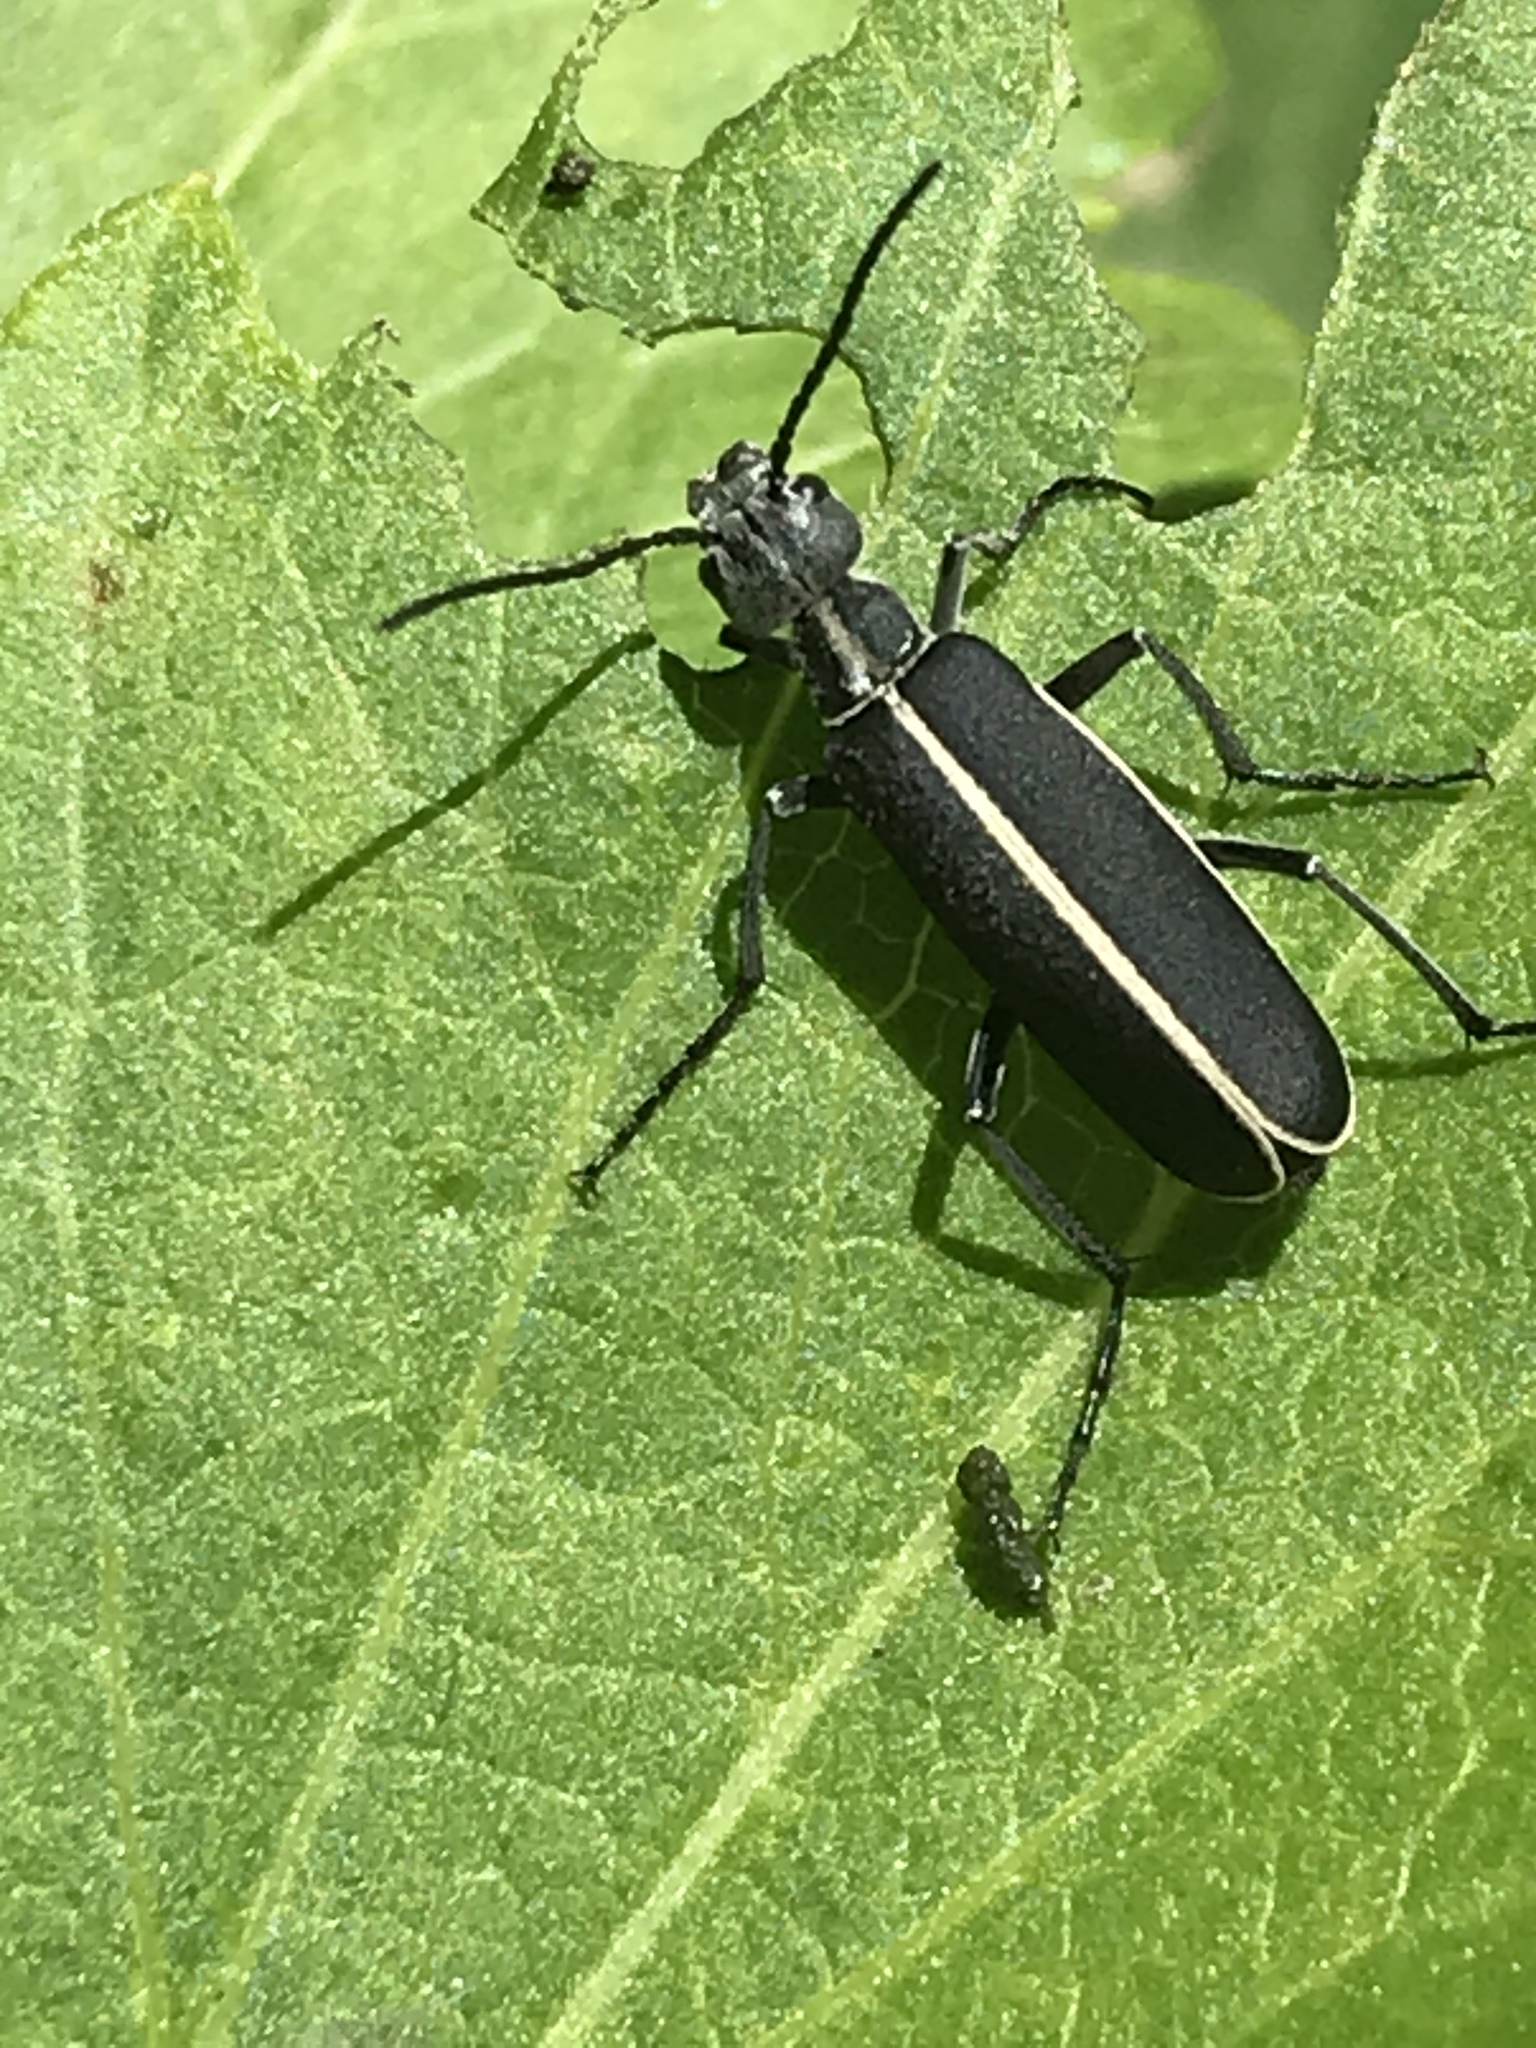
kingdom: Animalia
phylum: Arthropoda
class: Insecta
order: Coleoptera
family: Meloidae
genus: Epicauta
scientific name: Epicauta cinctipennis
